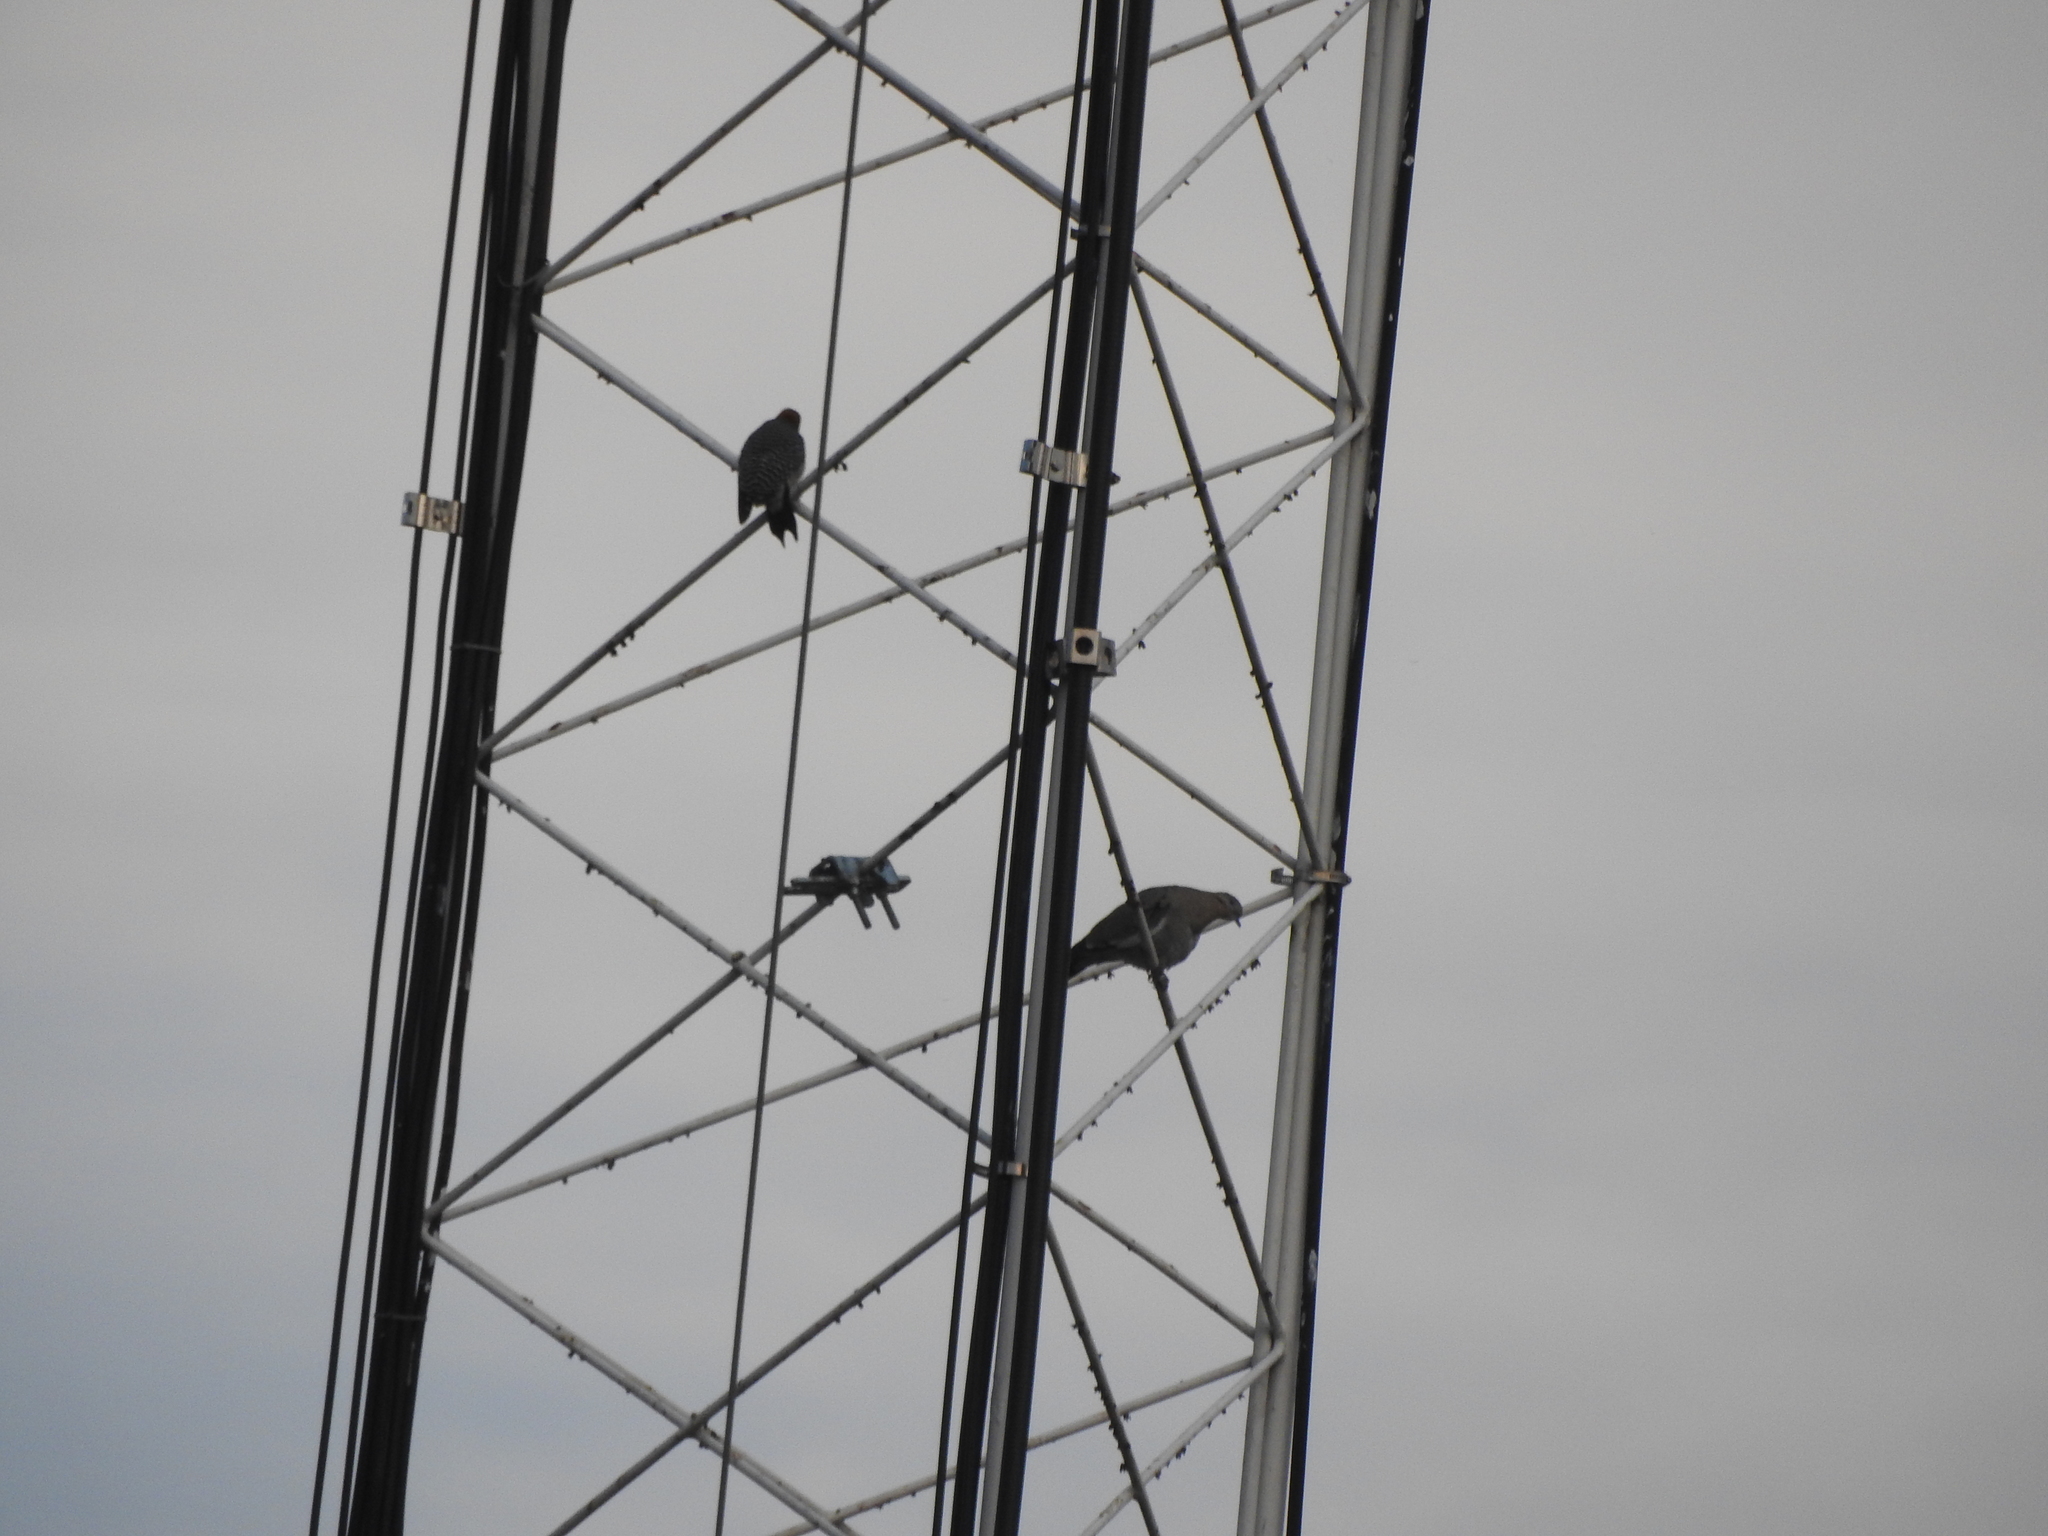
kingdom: Animalia
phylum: Chordata
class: Aves
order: Columbiformes
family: Columbidae
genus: Zenaida
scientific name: Zenaida asiatica
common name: White-winged dove
